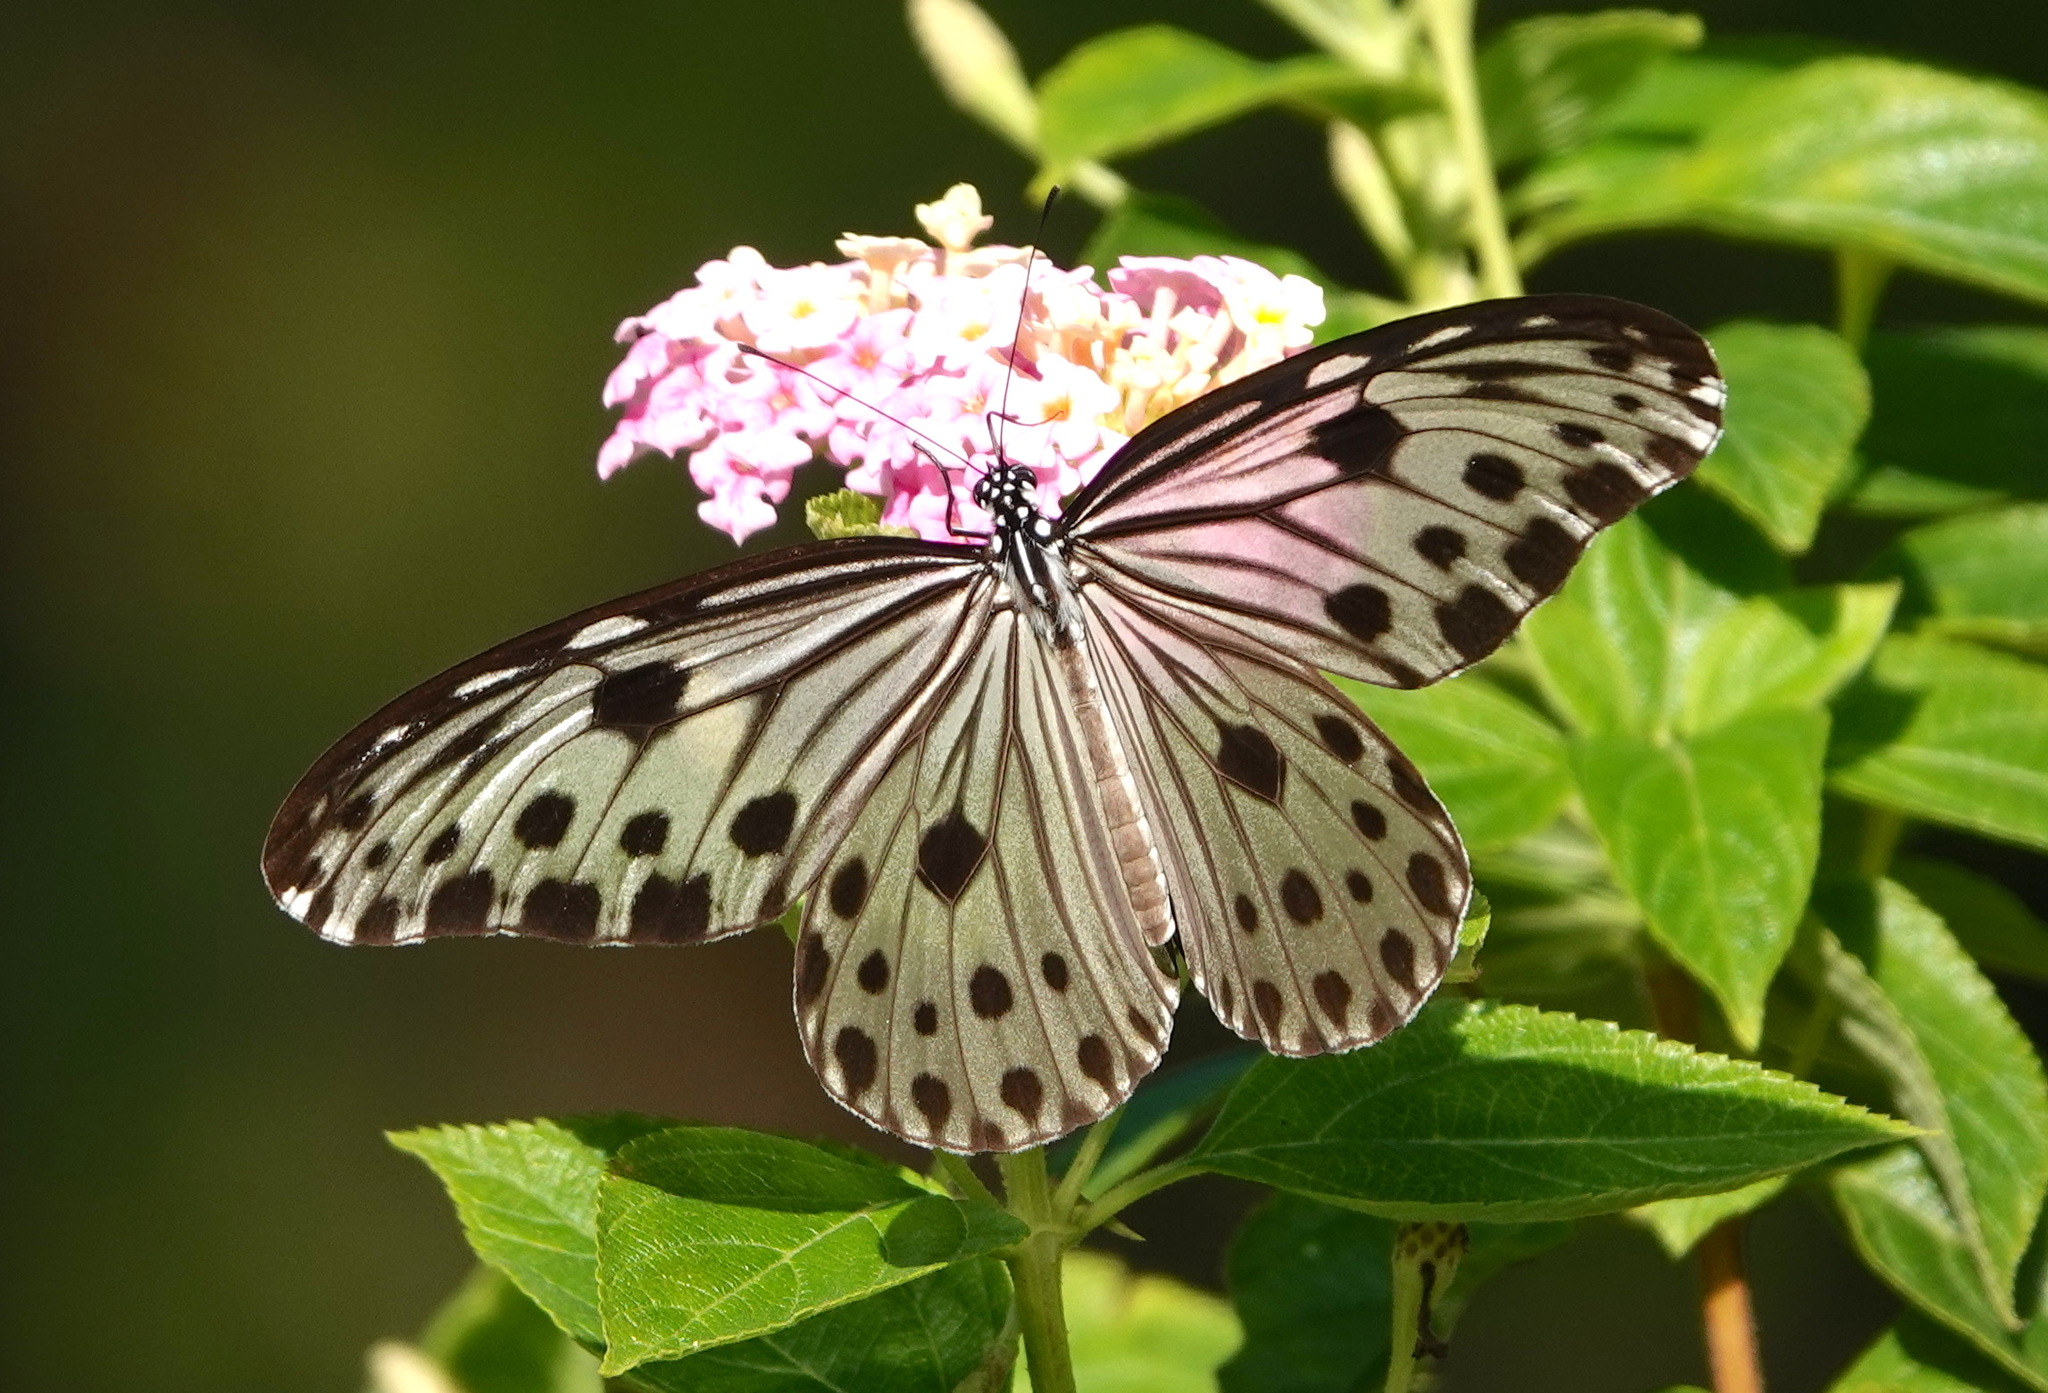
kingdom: Animalia
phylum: Arthropoda
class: Insecta
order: Lepidoptera
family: Nymphalidae
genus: Ideopsis
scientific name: Ideopsis gaura
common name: Smaller wood nymph
